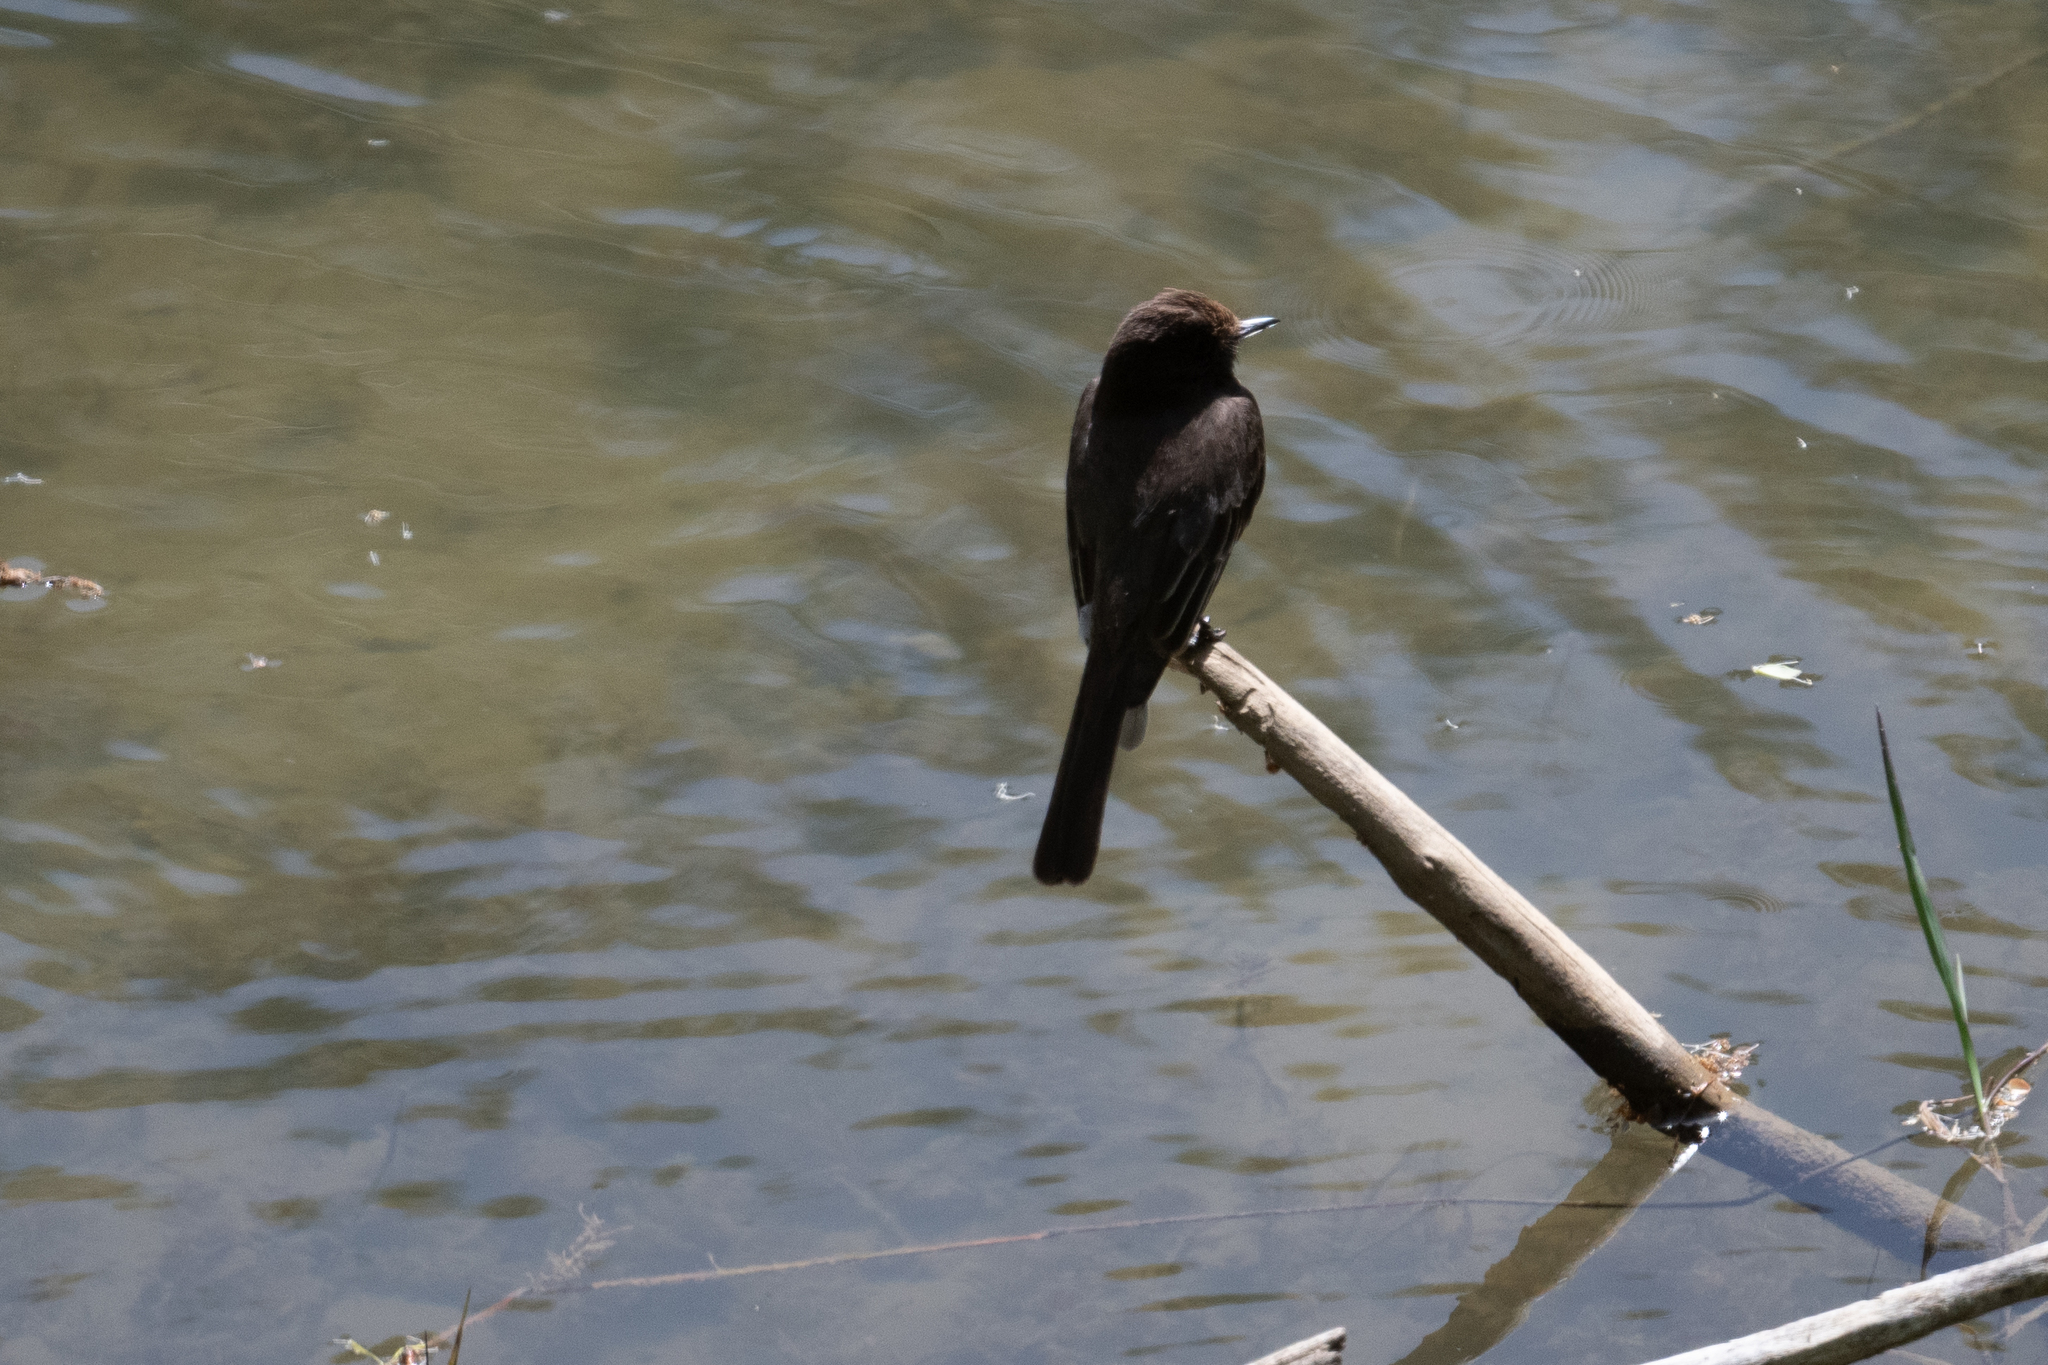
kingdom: Animalia
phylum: Chordata
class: Aves
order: Passeriformes
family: Tyrannidae
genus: Sayornis
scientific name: Sayornis nigricans
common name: Black phoebe
